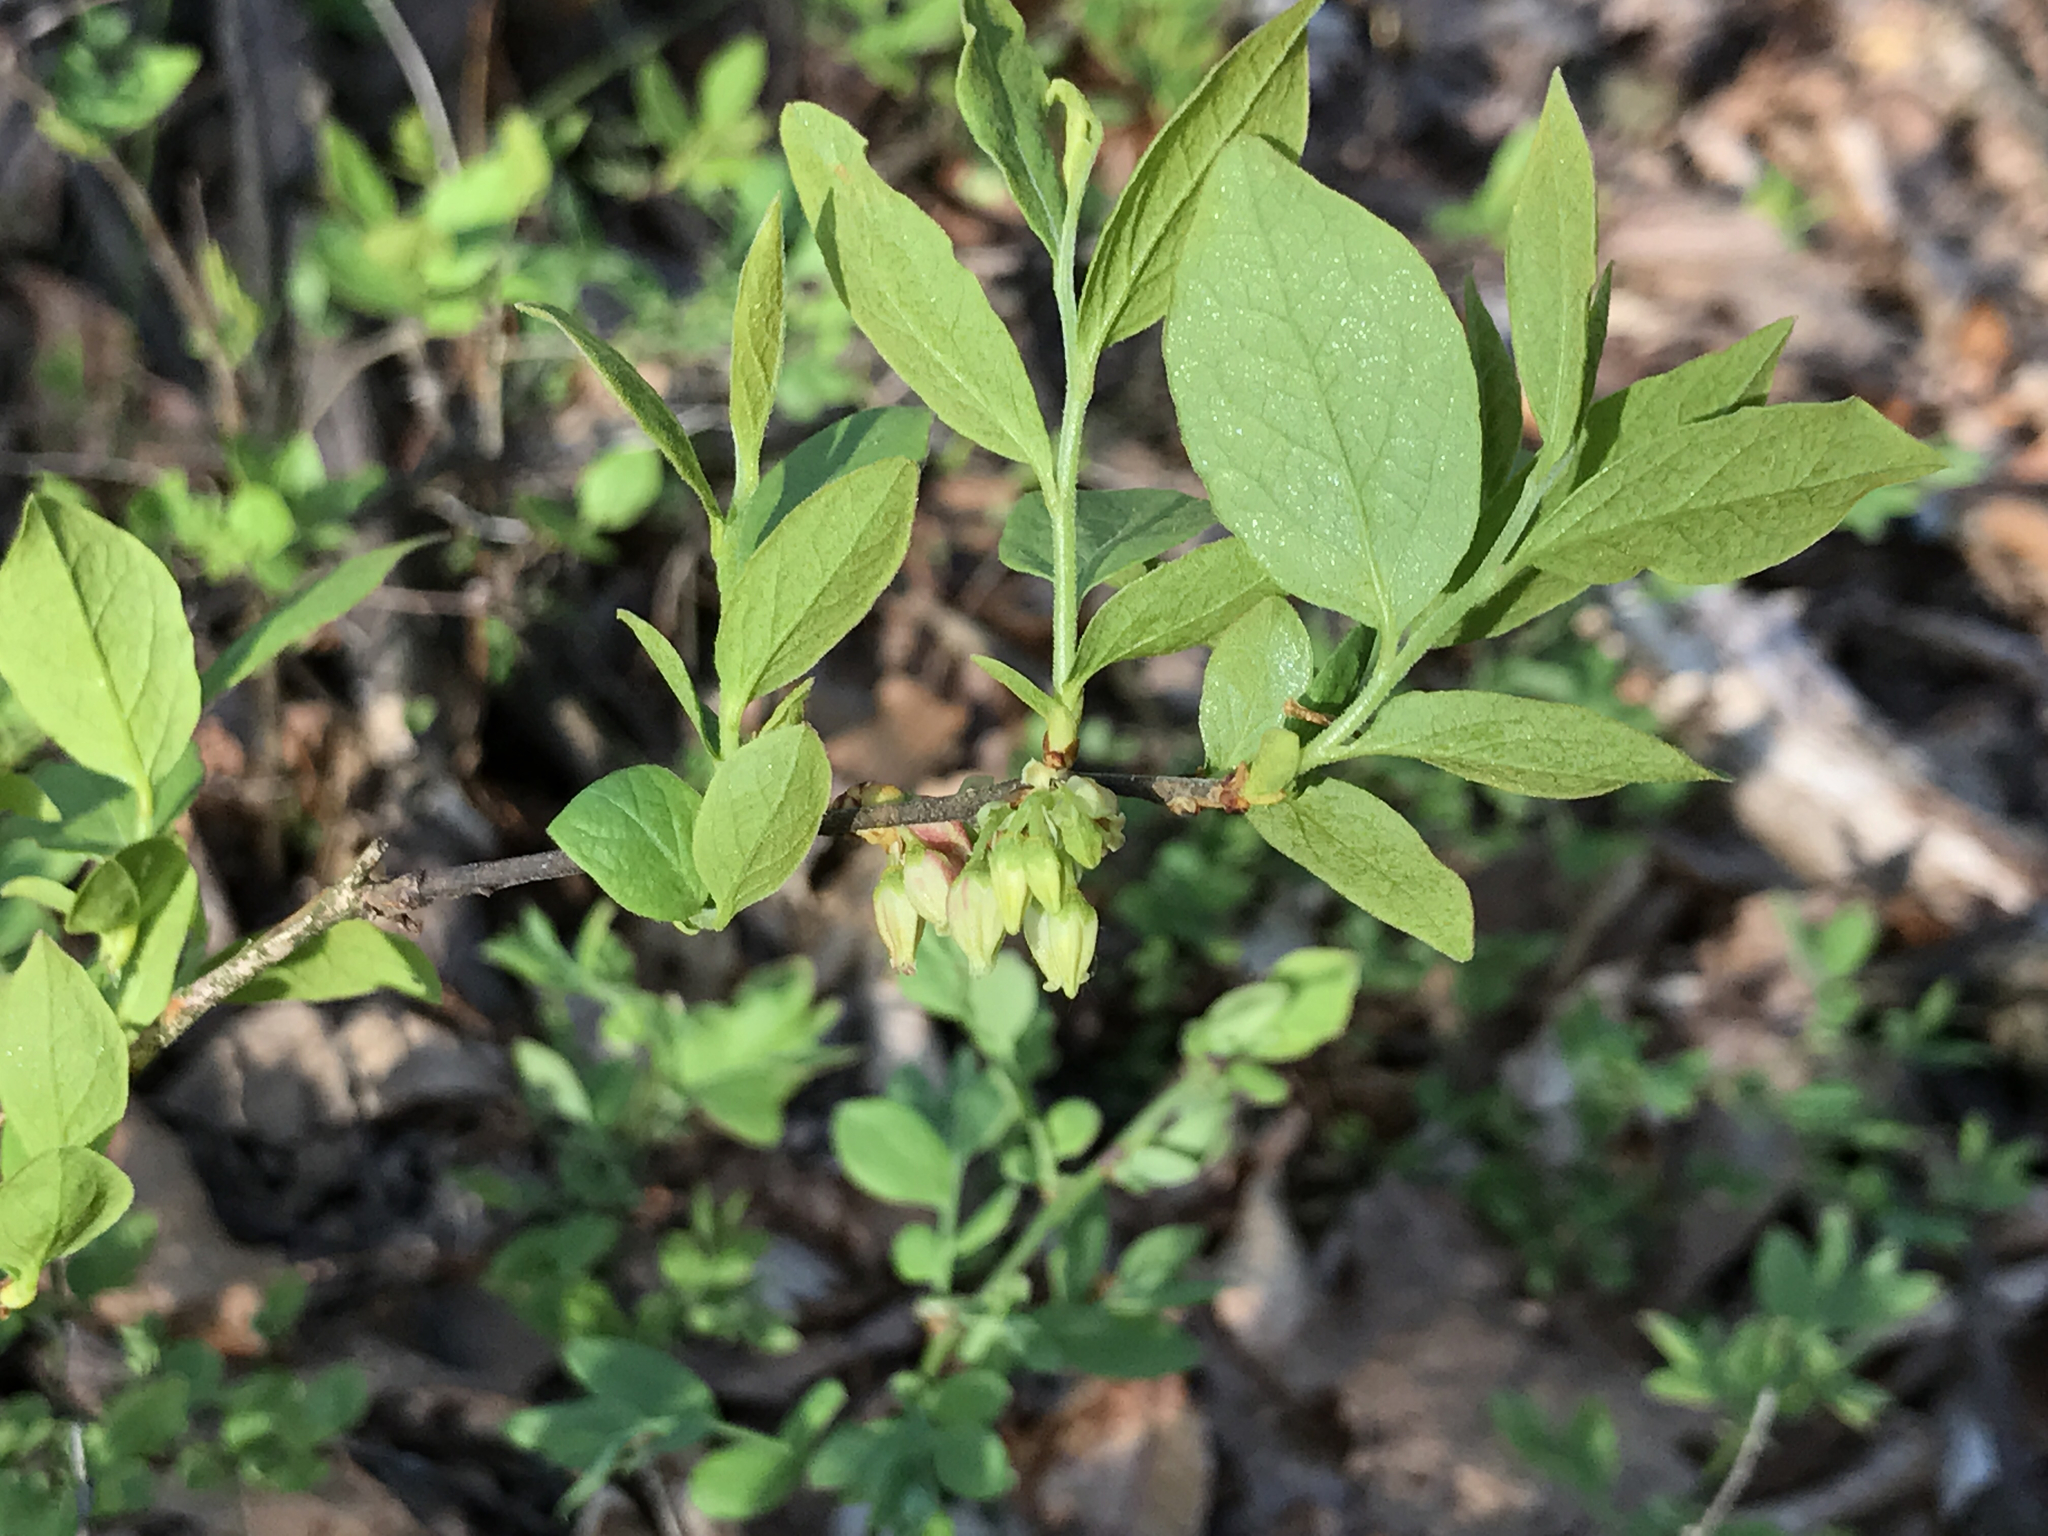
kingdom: Plantae
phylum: Tracheophyta
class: Magnoliopsida
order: Ericales
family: Ericaceae
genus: Gaylussacia
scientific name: Gaylussacia baccata
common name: Black huckleberry
